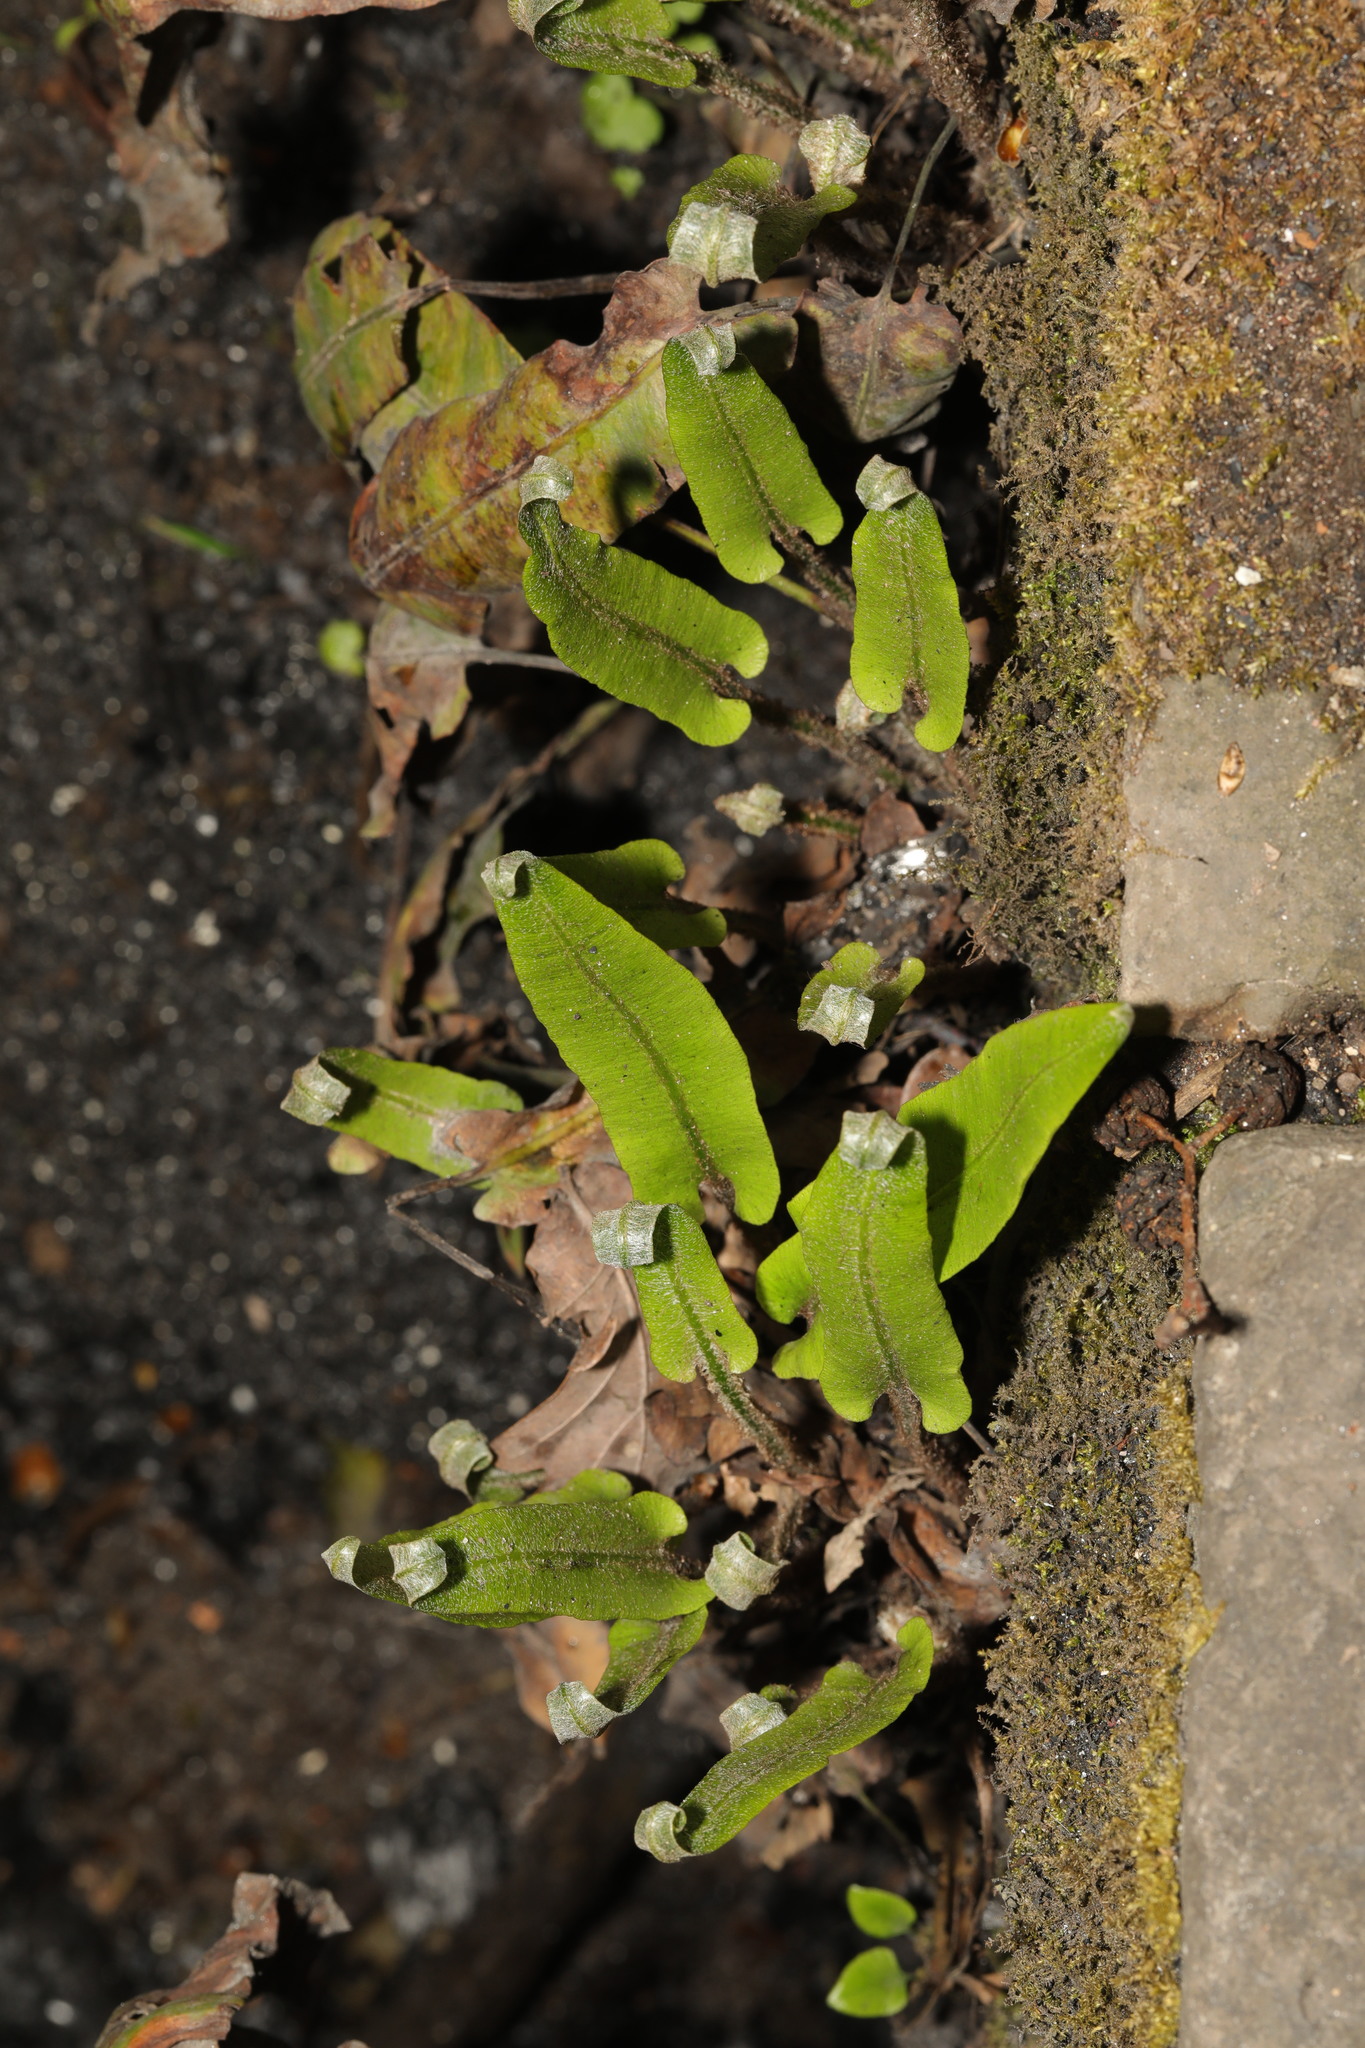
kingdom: Plantae
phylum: Tracheophyta
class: Polypodiopsida
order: Polypodiales
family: Aspleniaceae
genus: Asplenium
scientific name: Asplenium scolopendrium
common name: Hart's-tongue fern
